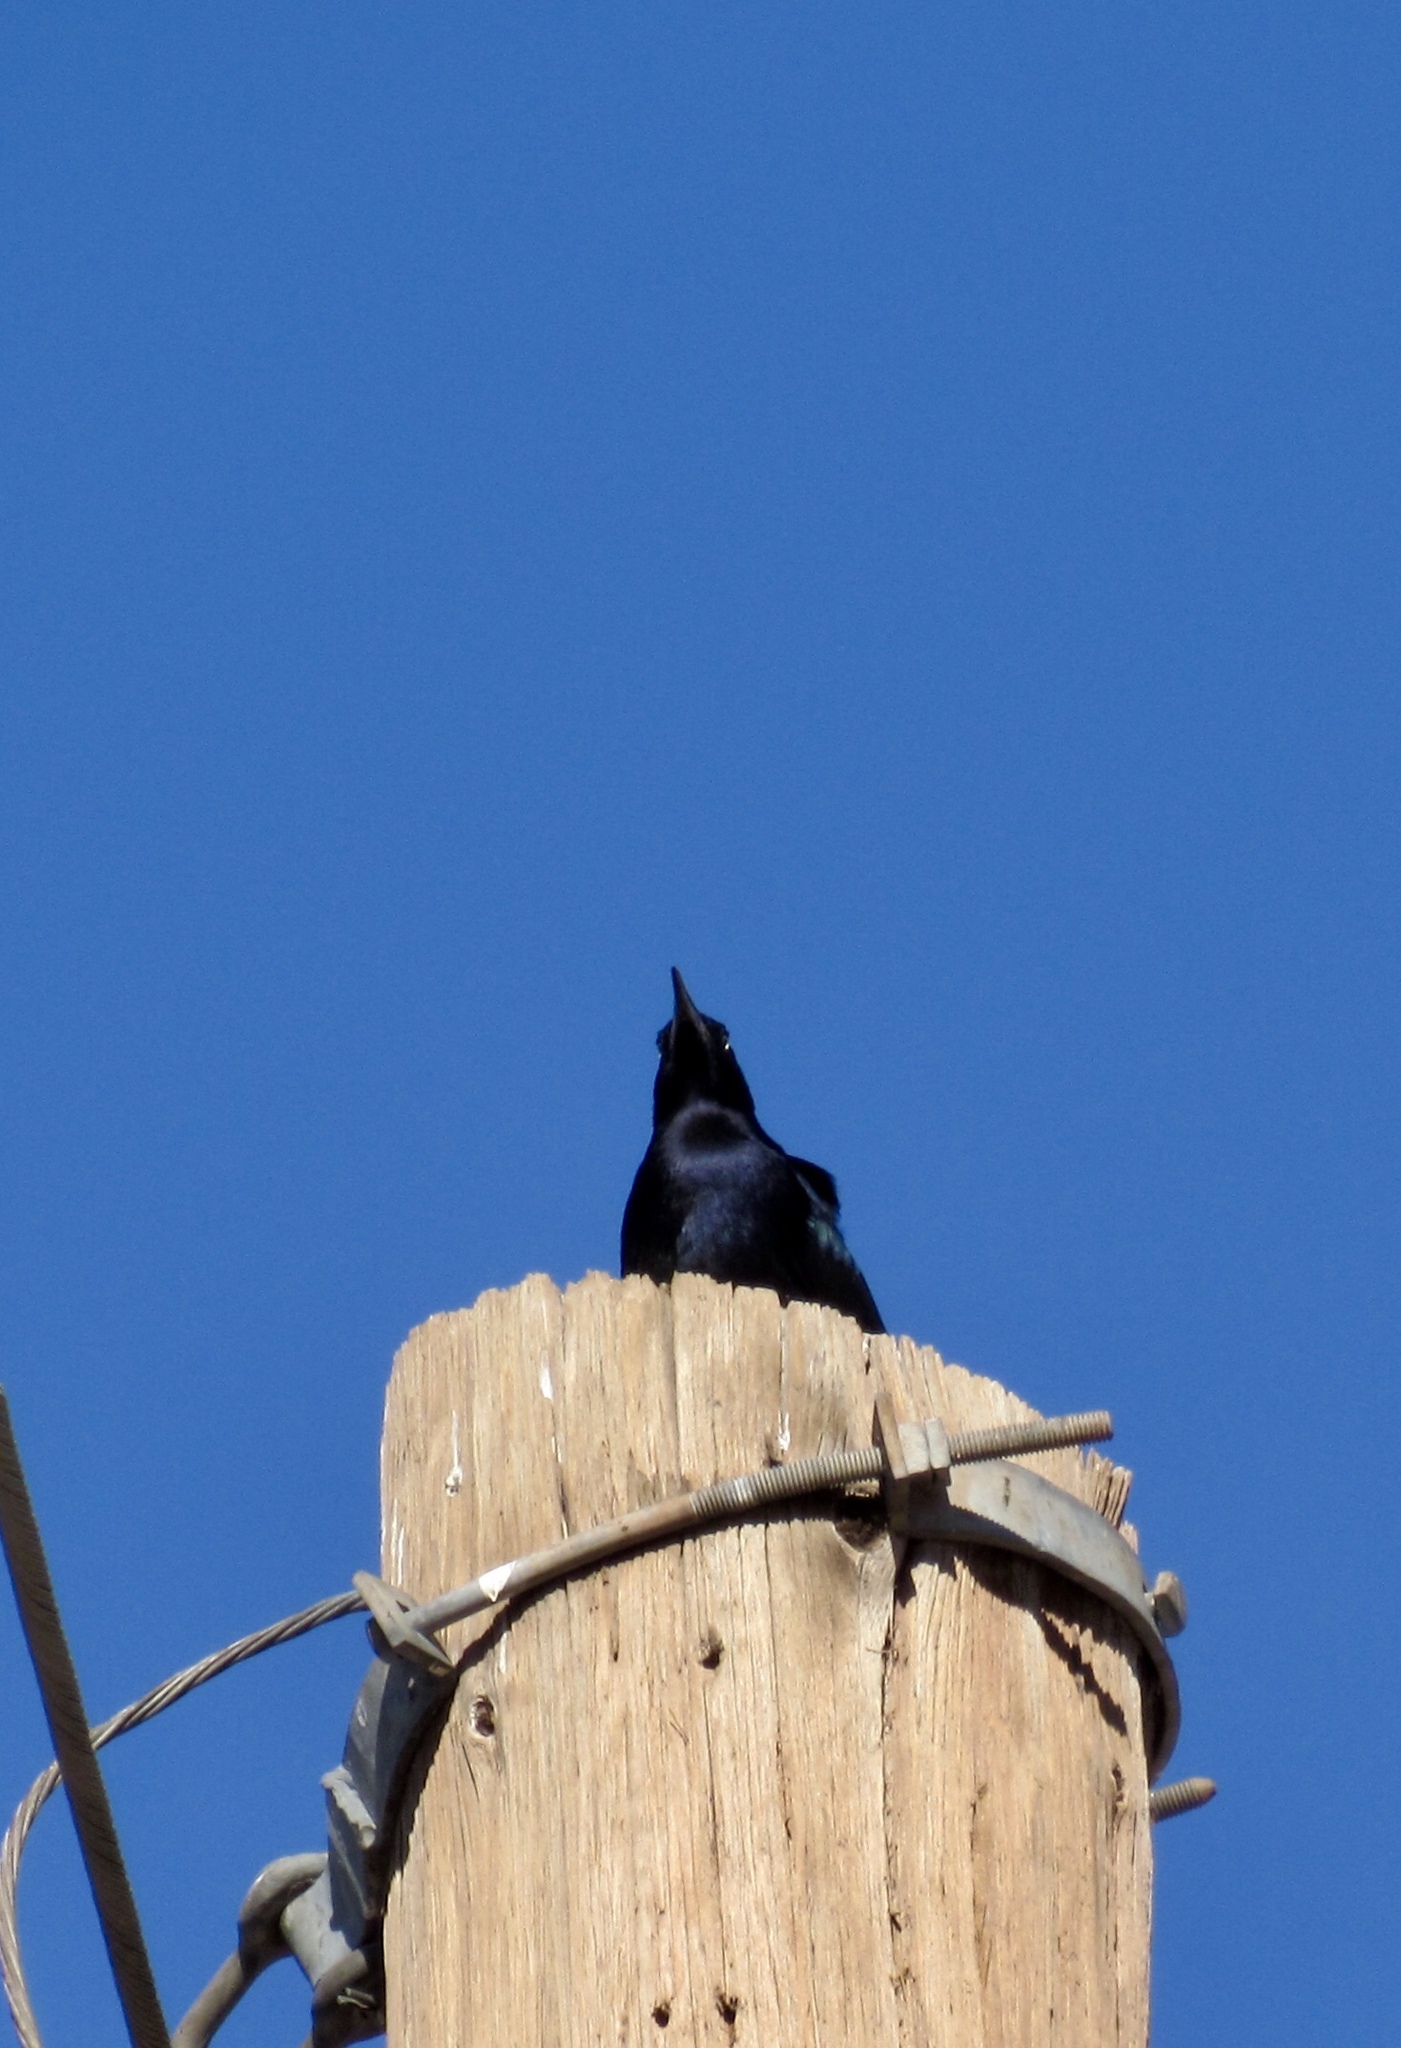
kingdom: Animalia
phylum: Chordata
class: Aves
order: Passeriformes
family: Icteridae
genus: Quiscalus
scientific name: Quiscalus mexicanus
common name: Great-tailed grackle
